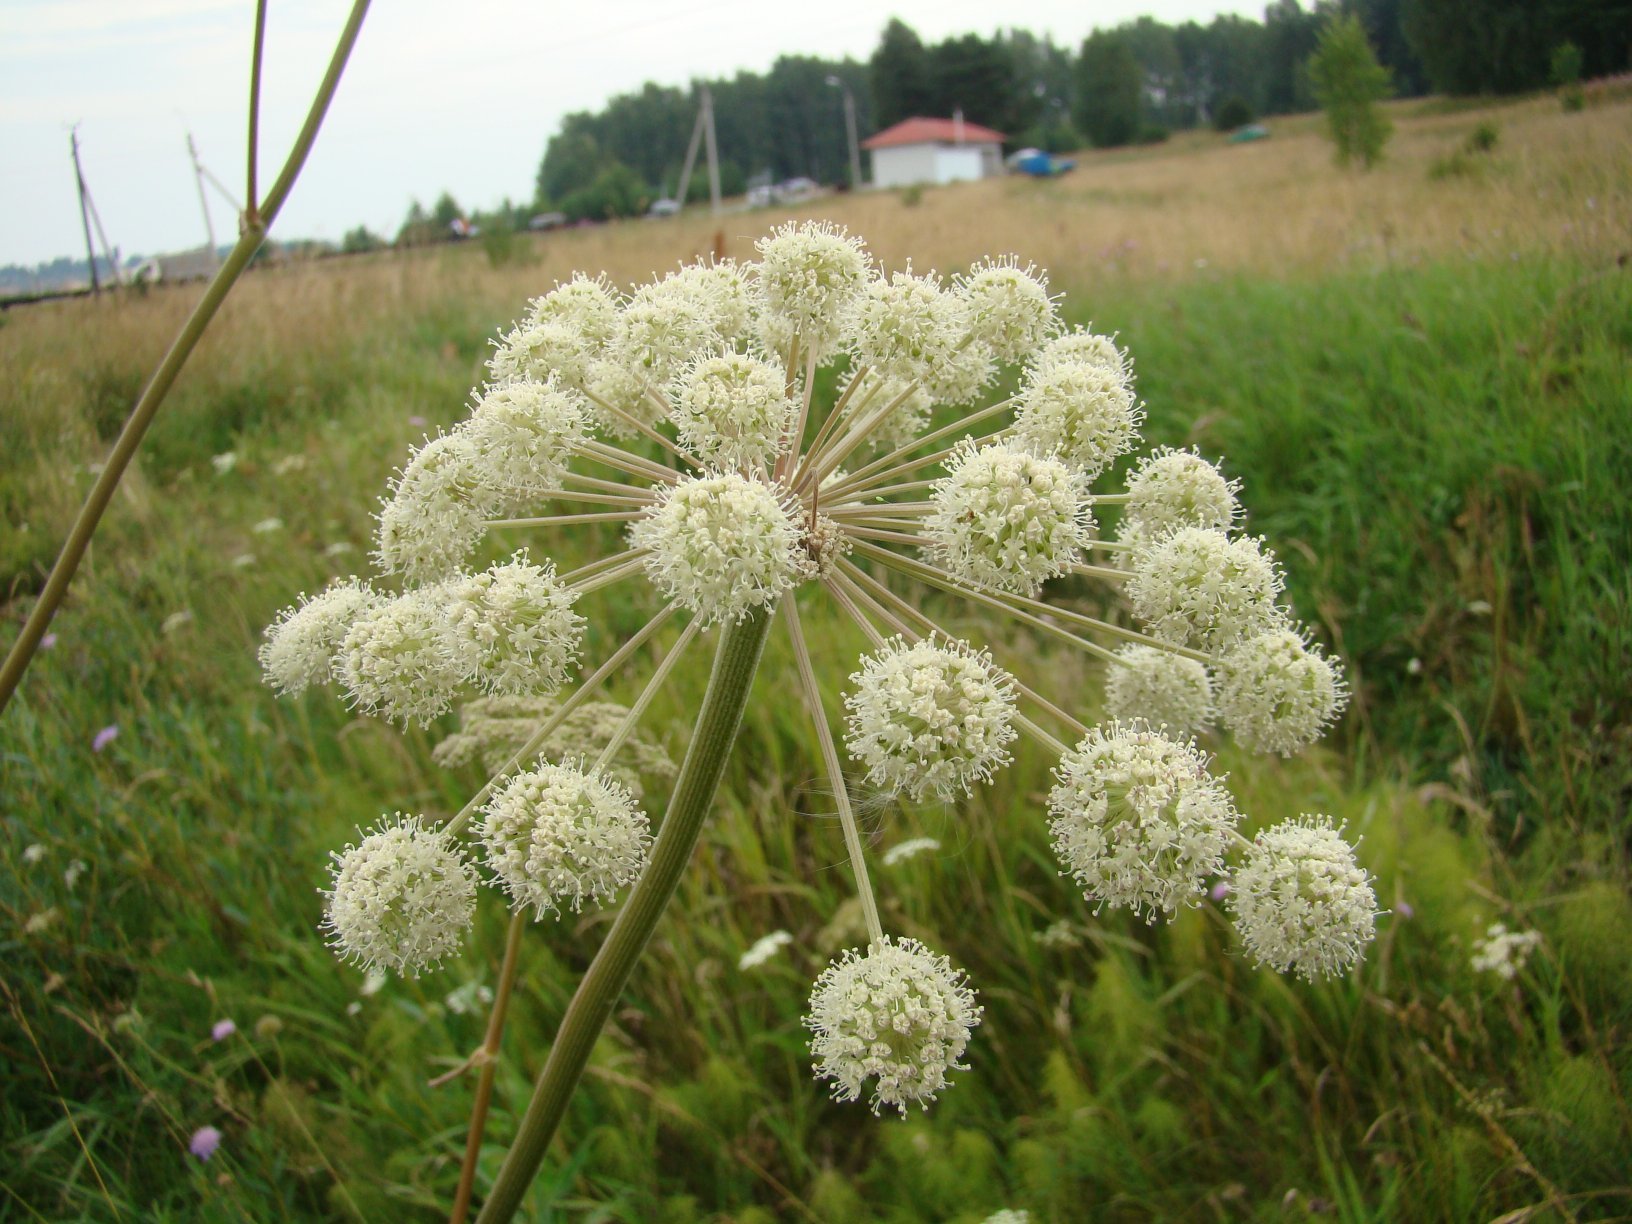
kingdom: Plantae
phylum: Tracheophyta
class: Magnoliopsida
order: Apiales
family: Apiaceae
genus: Angelica
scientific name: Angelica sylvestris
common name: Wild angelica
